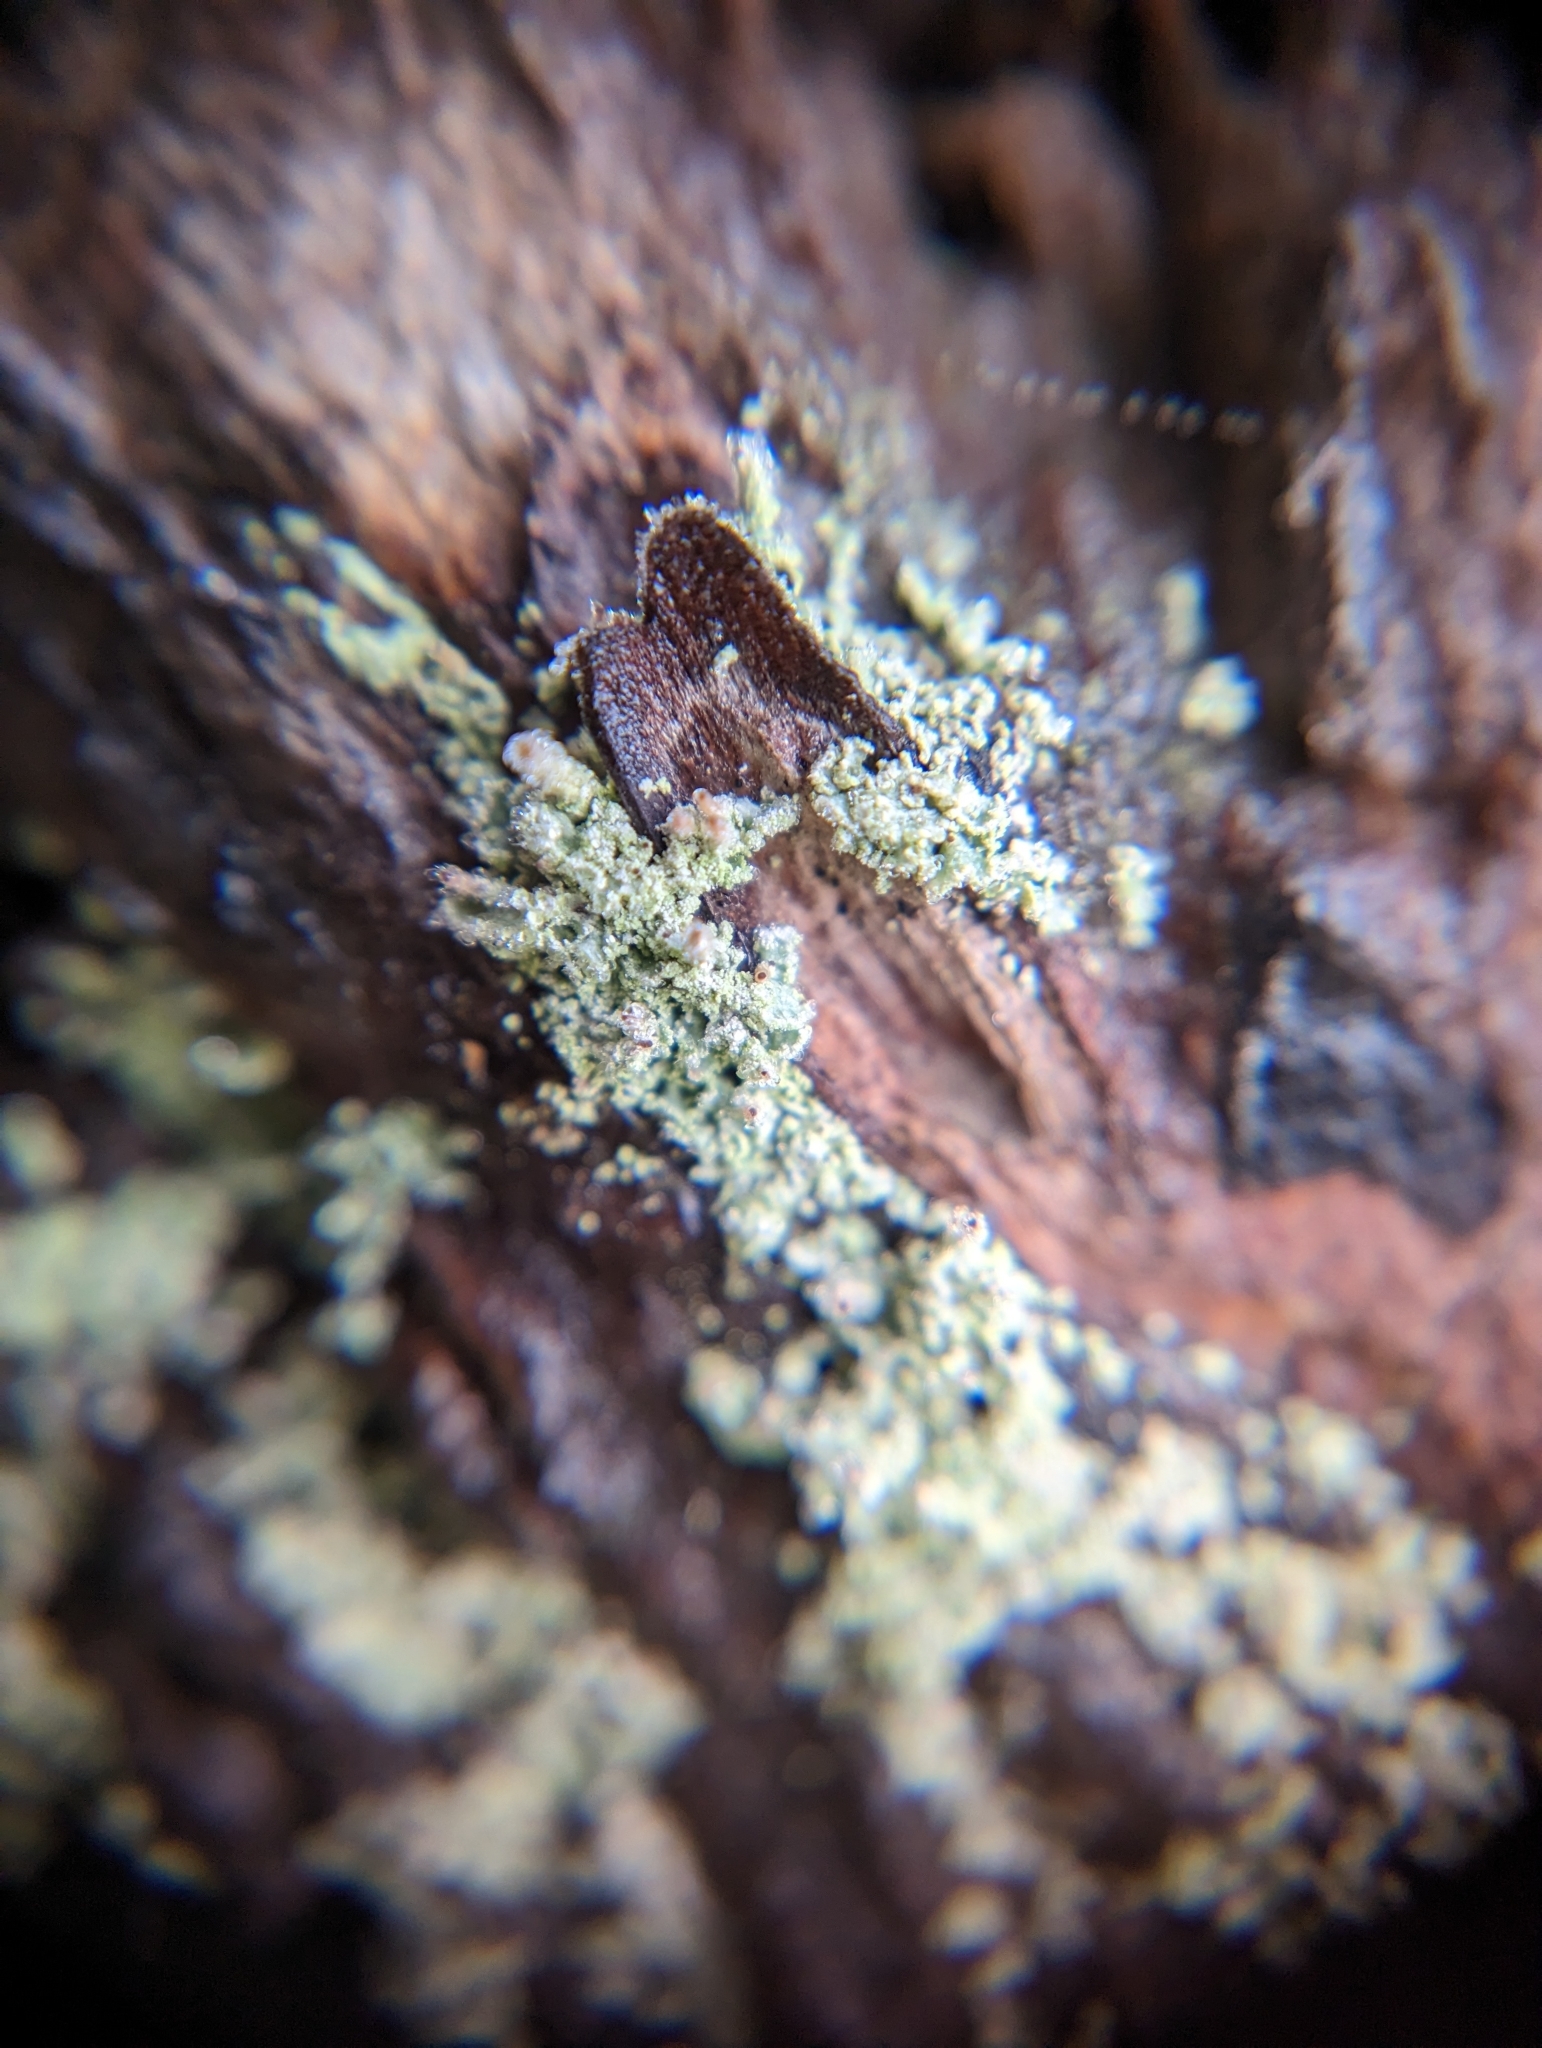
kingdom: Fungi
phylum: Ascomycota
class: Lecanoromycetes
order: Lecanorales
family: Stereocaulaceae
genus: Lepraria
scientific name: Lepraria lobificans
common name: Fluffy dust lichen
